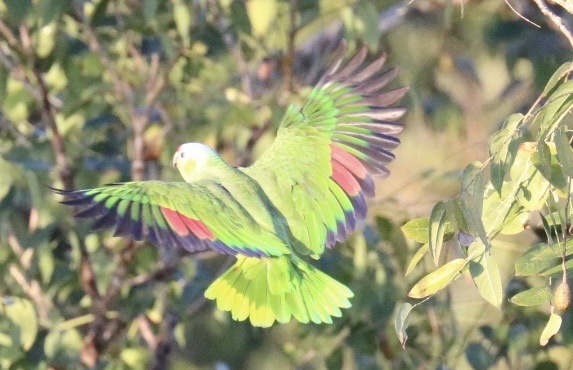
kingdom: Animalia
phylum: Chordata
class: Aves
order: Psittaciformes
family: Psittacidae
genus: Amazona
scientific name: Amazona autumnalis
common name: Red-lored amazon
